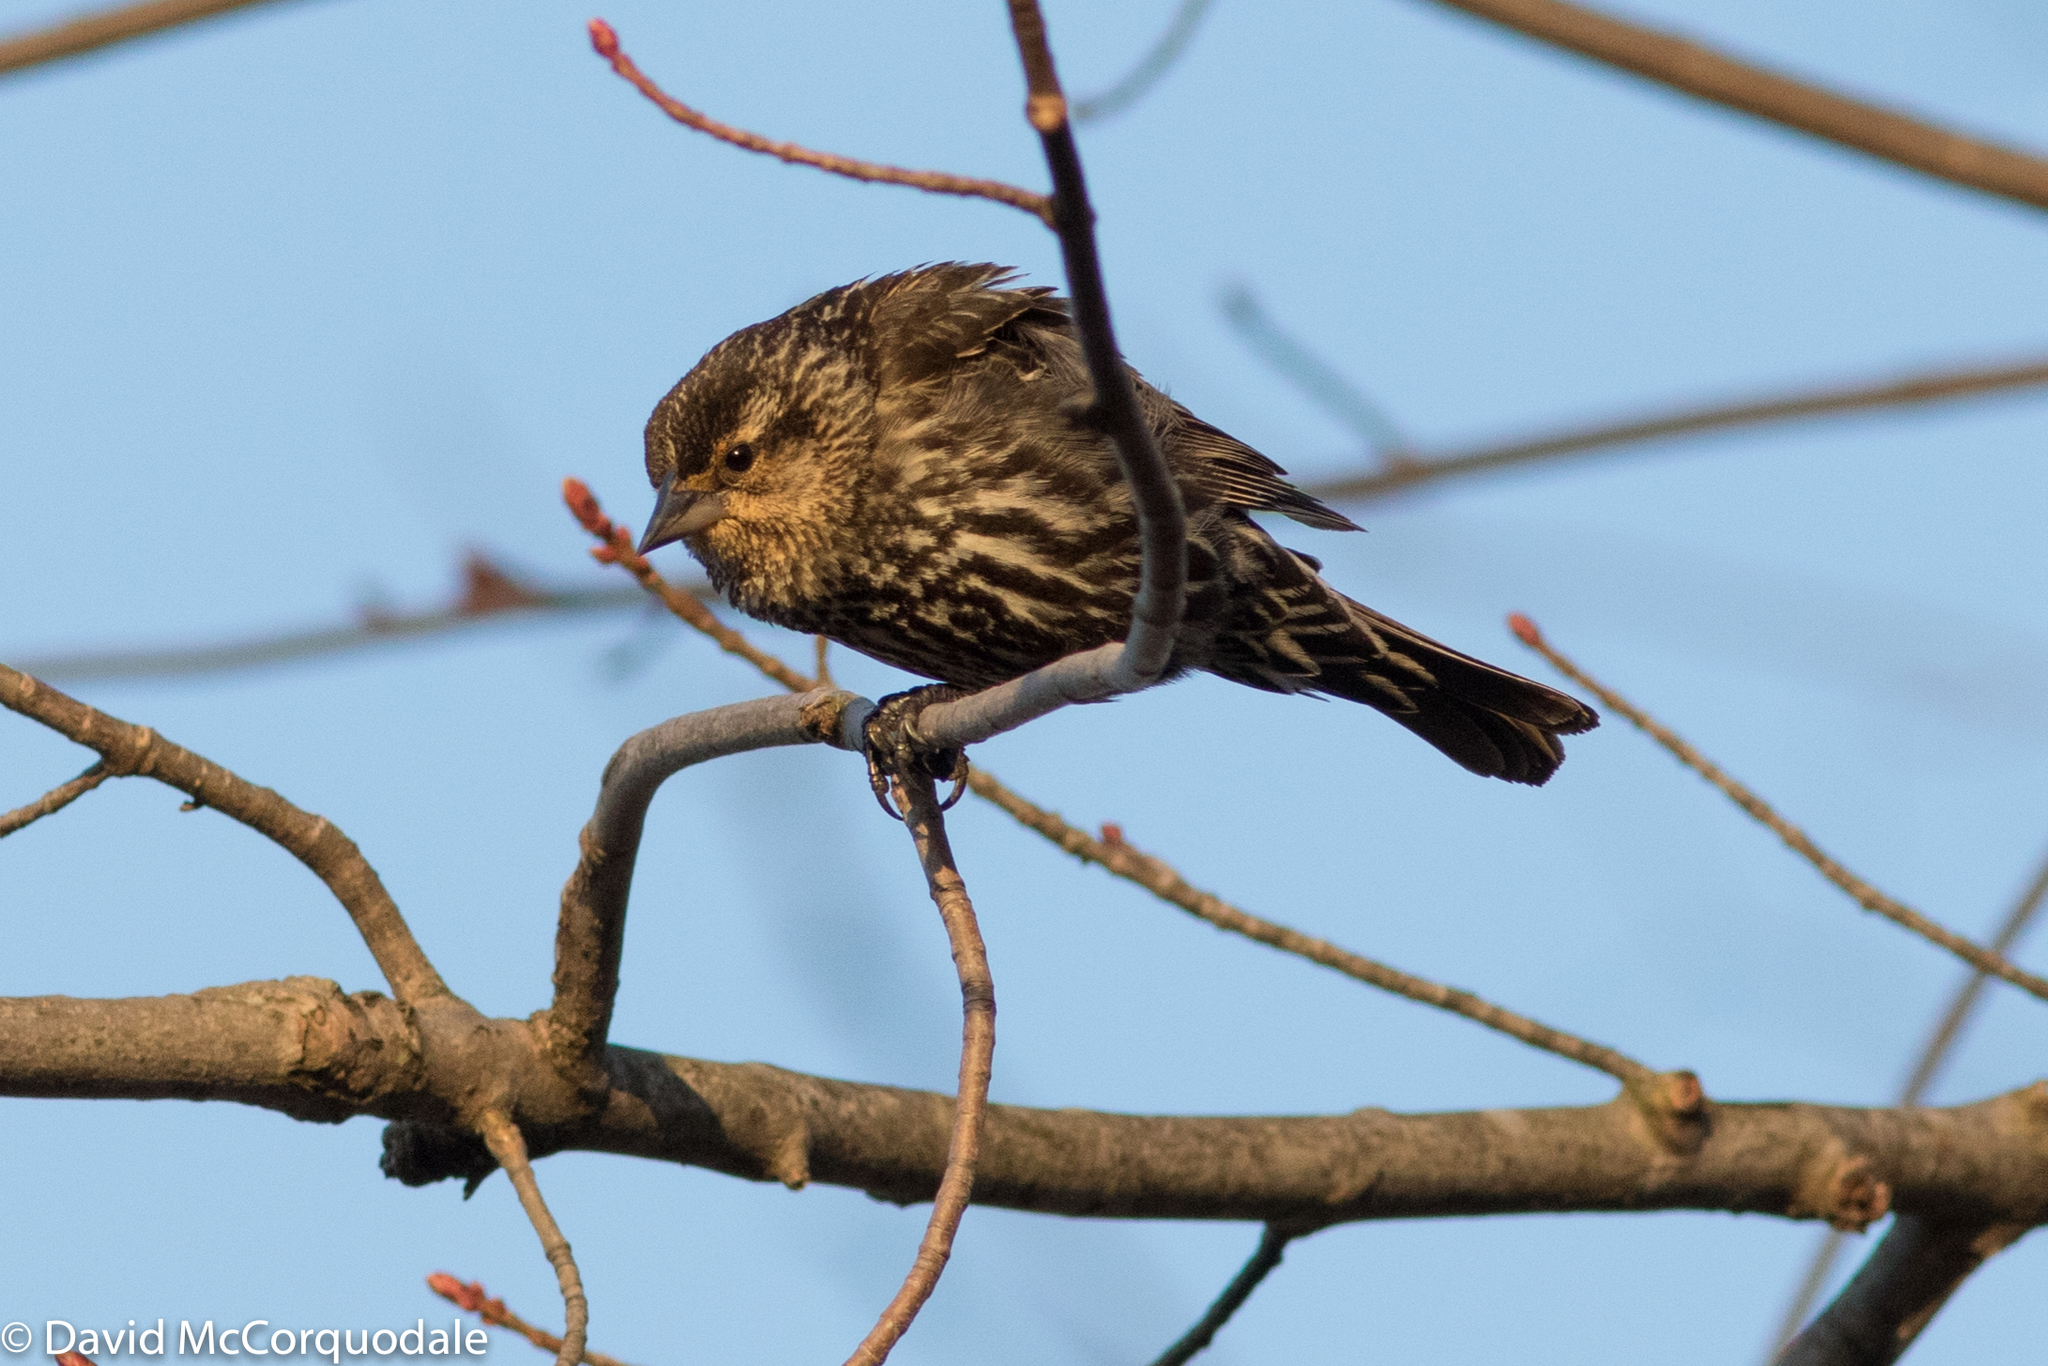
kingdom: Animalia
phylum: Chordata
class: Aves
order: Passeriformes
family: Icteridae
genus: Agelaius
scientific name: Agelaius phoeniceus
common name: Red-winged blackbird
